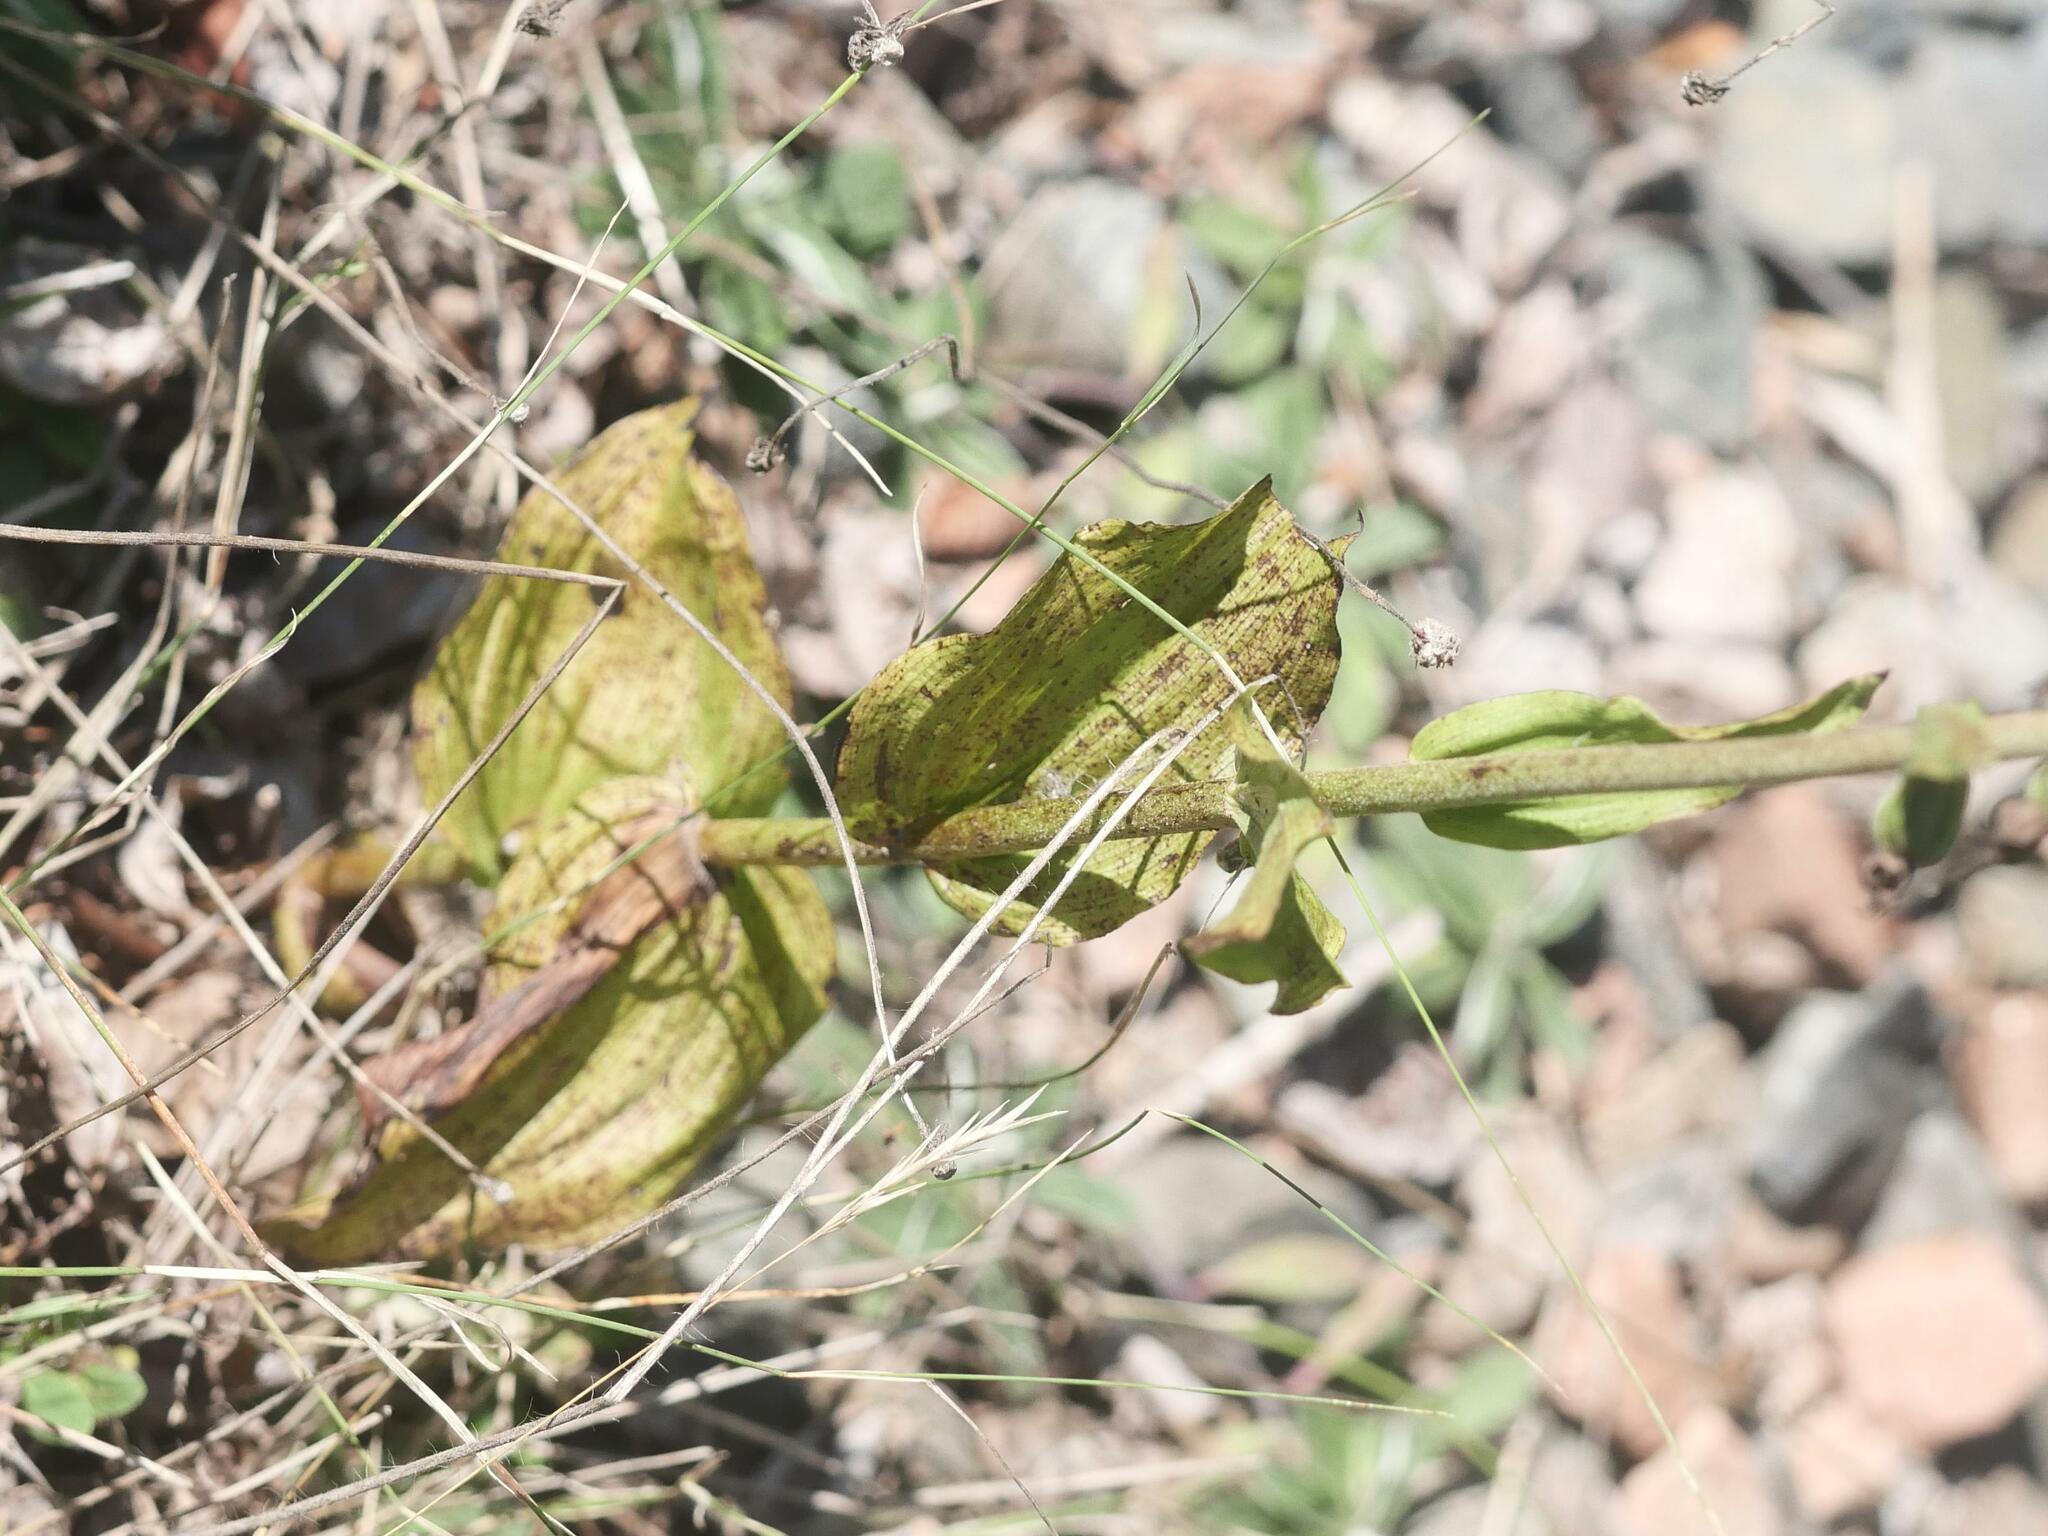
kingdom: Plantae
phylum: Tracheophyta
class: Liliopsida
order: Asparagales
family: Orchidaceae
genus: Epipactis
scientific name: Epipactis helleborine
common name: Broad-leaved helleborine
